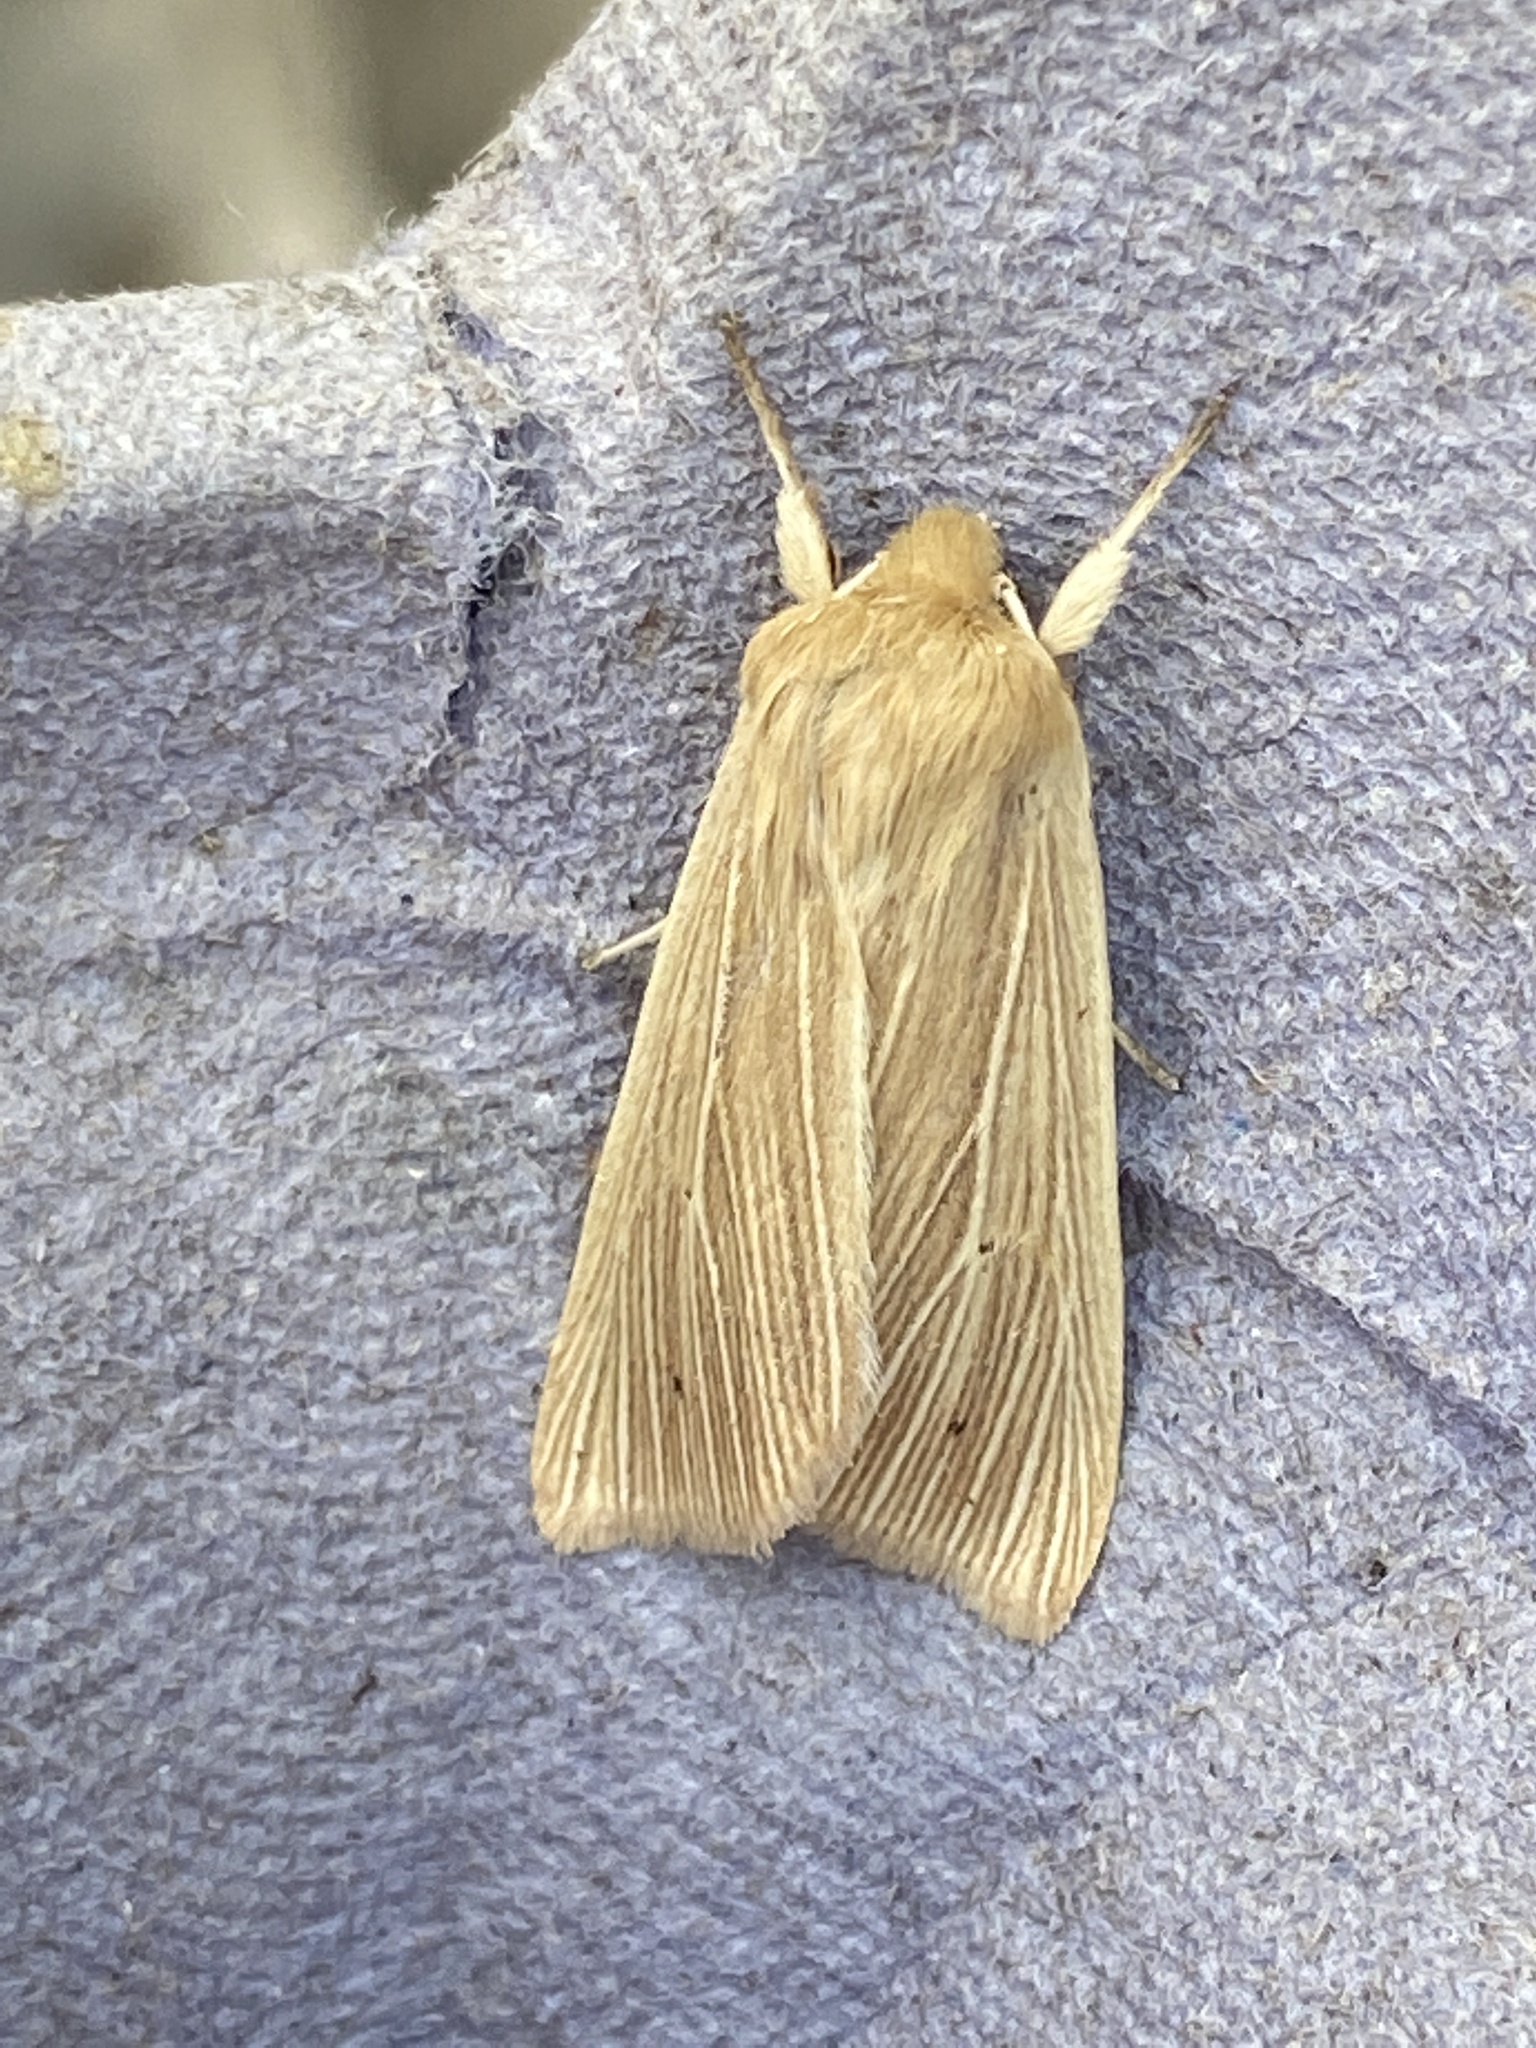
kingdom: Animalia
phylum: Arthropoda
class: Insecta
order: Lepidoptera
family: Noctuidae
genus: Mythimna
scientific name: Mythimna pallens
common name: Common wainscot
